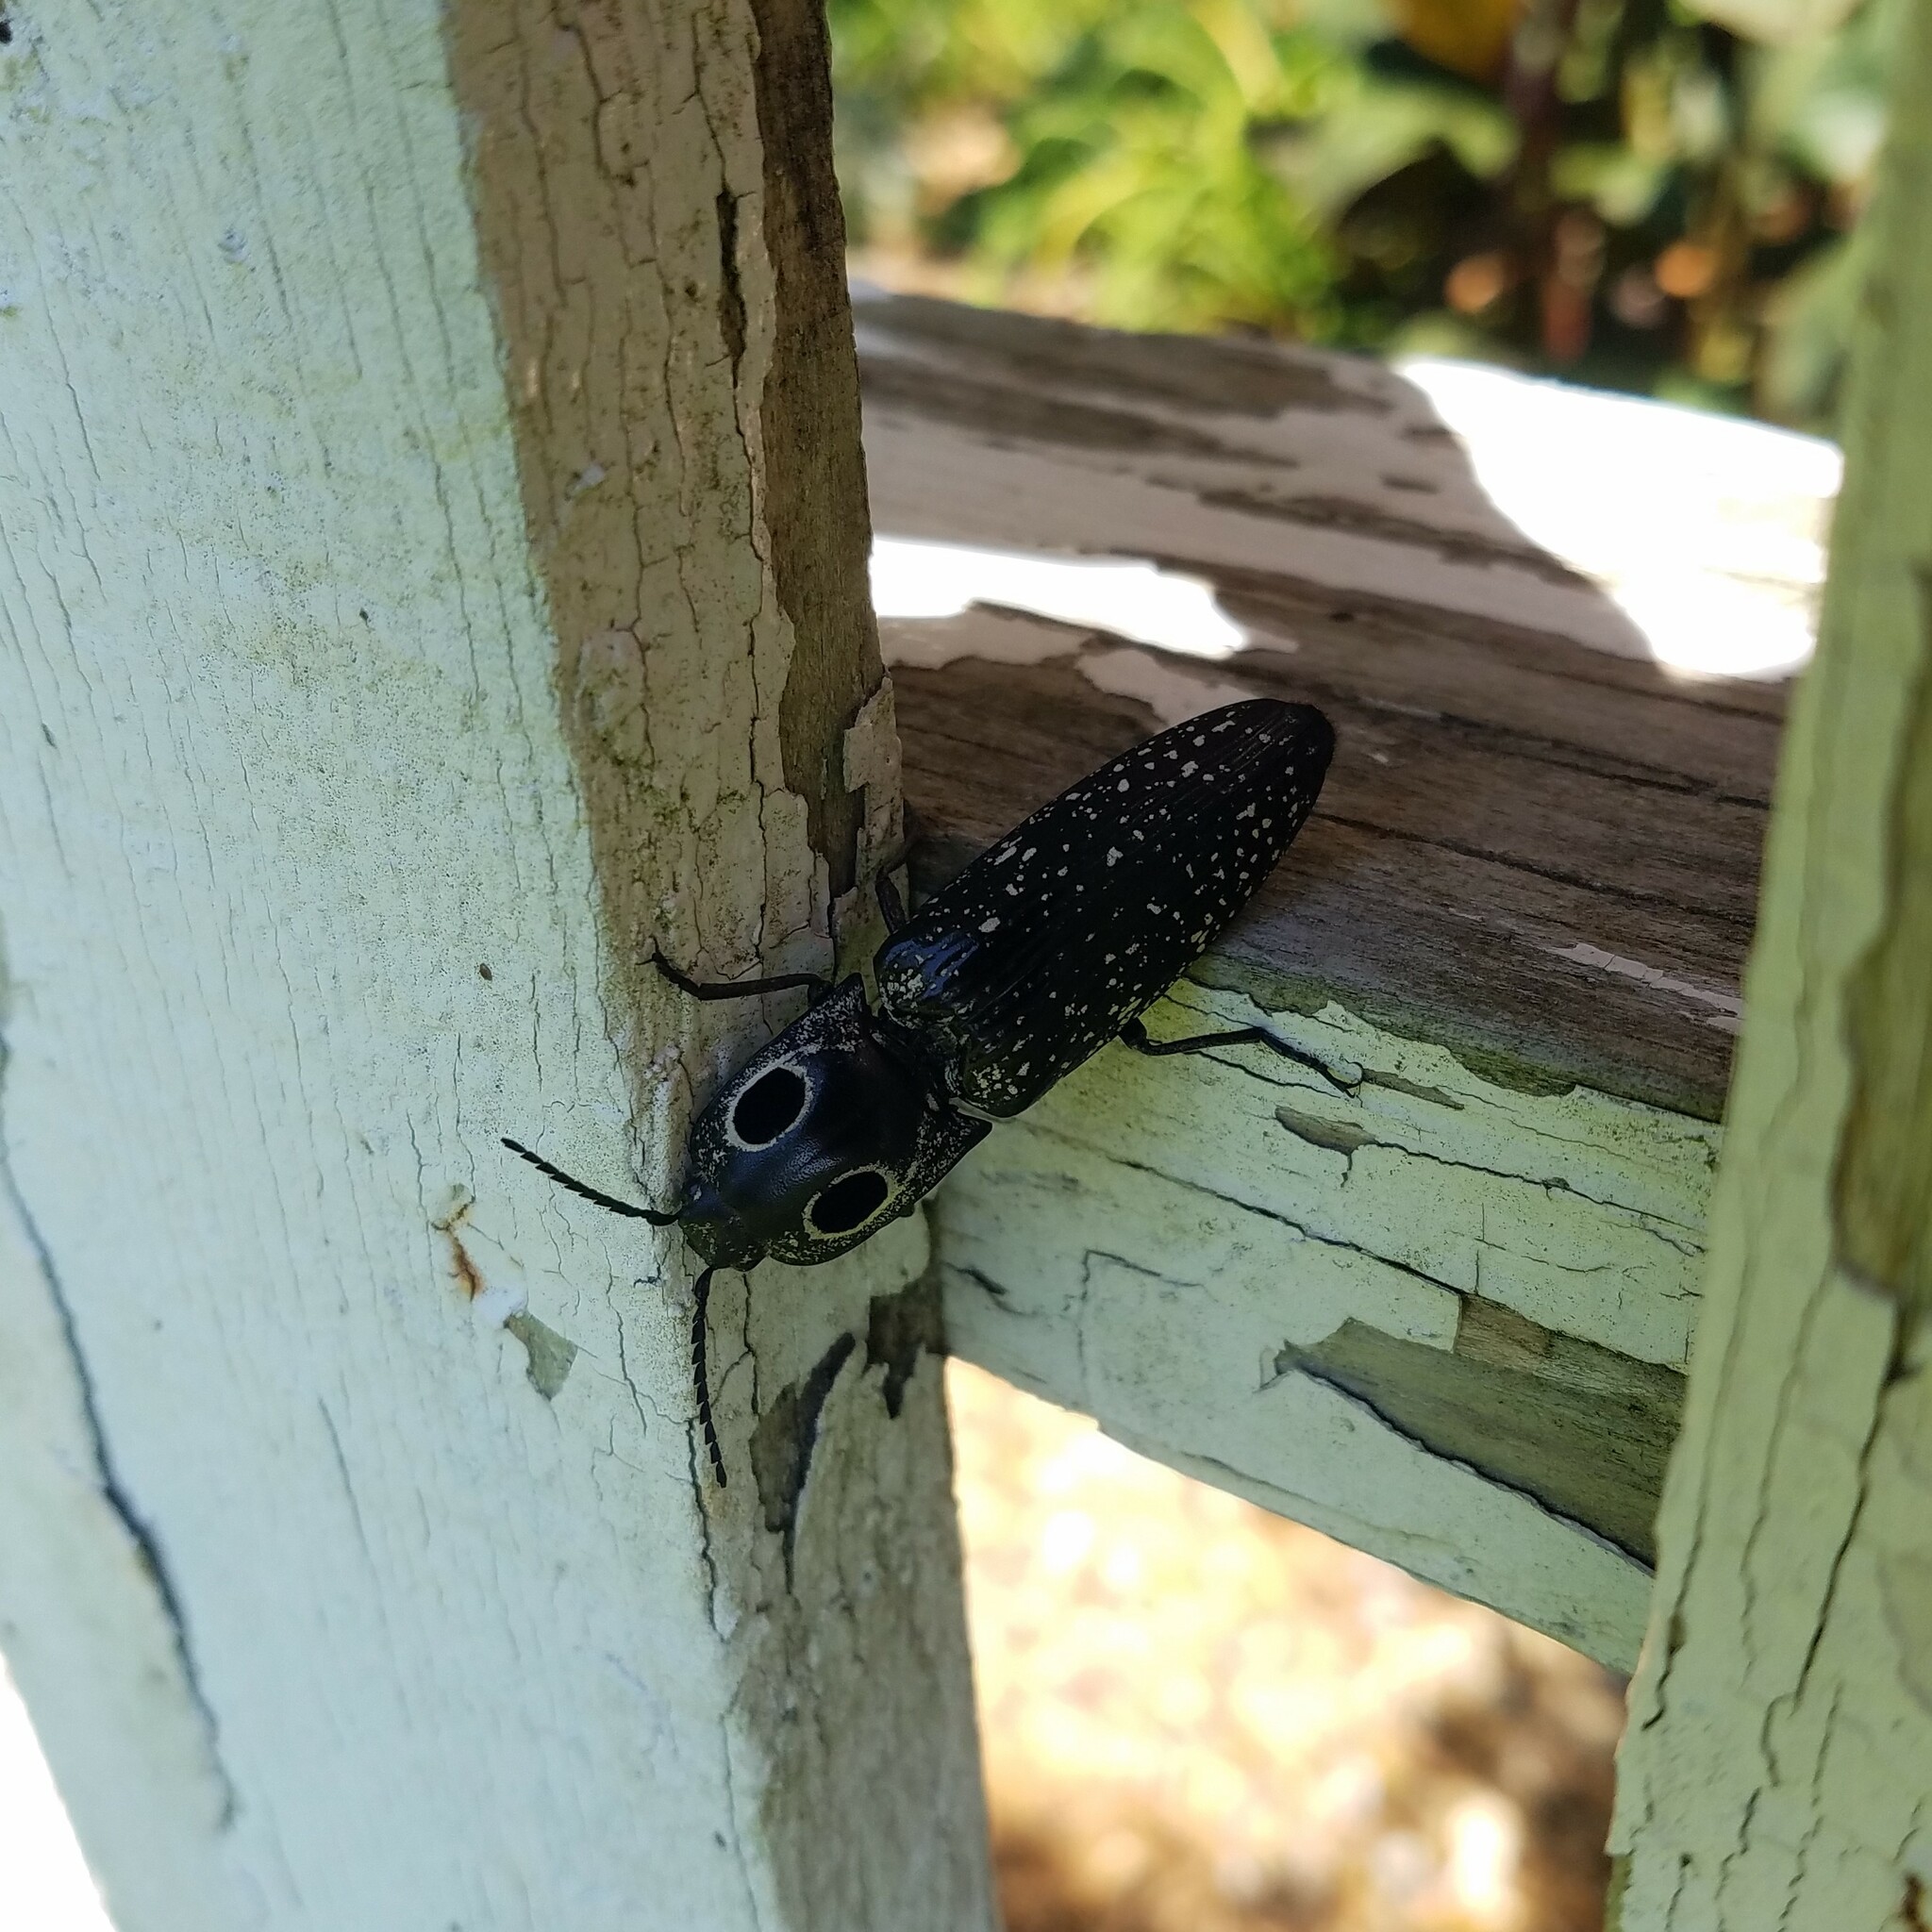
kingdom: Animalia
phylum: Arthropoda
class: Insecta
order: Coleoptera
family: Elateridae
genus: Alaus
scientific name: Alaus oculatus
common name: Eastern eyed click beetle
